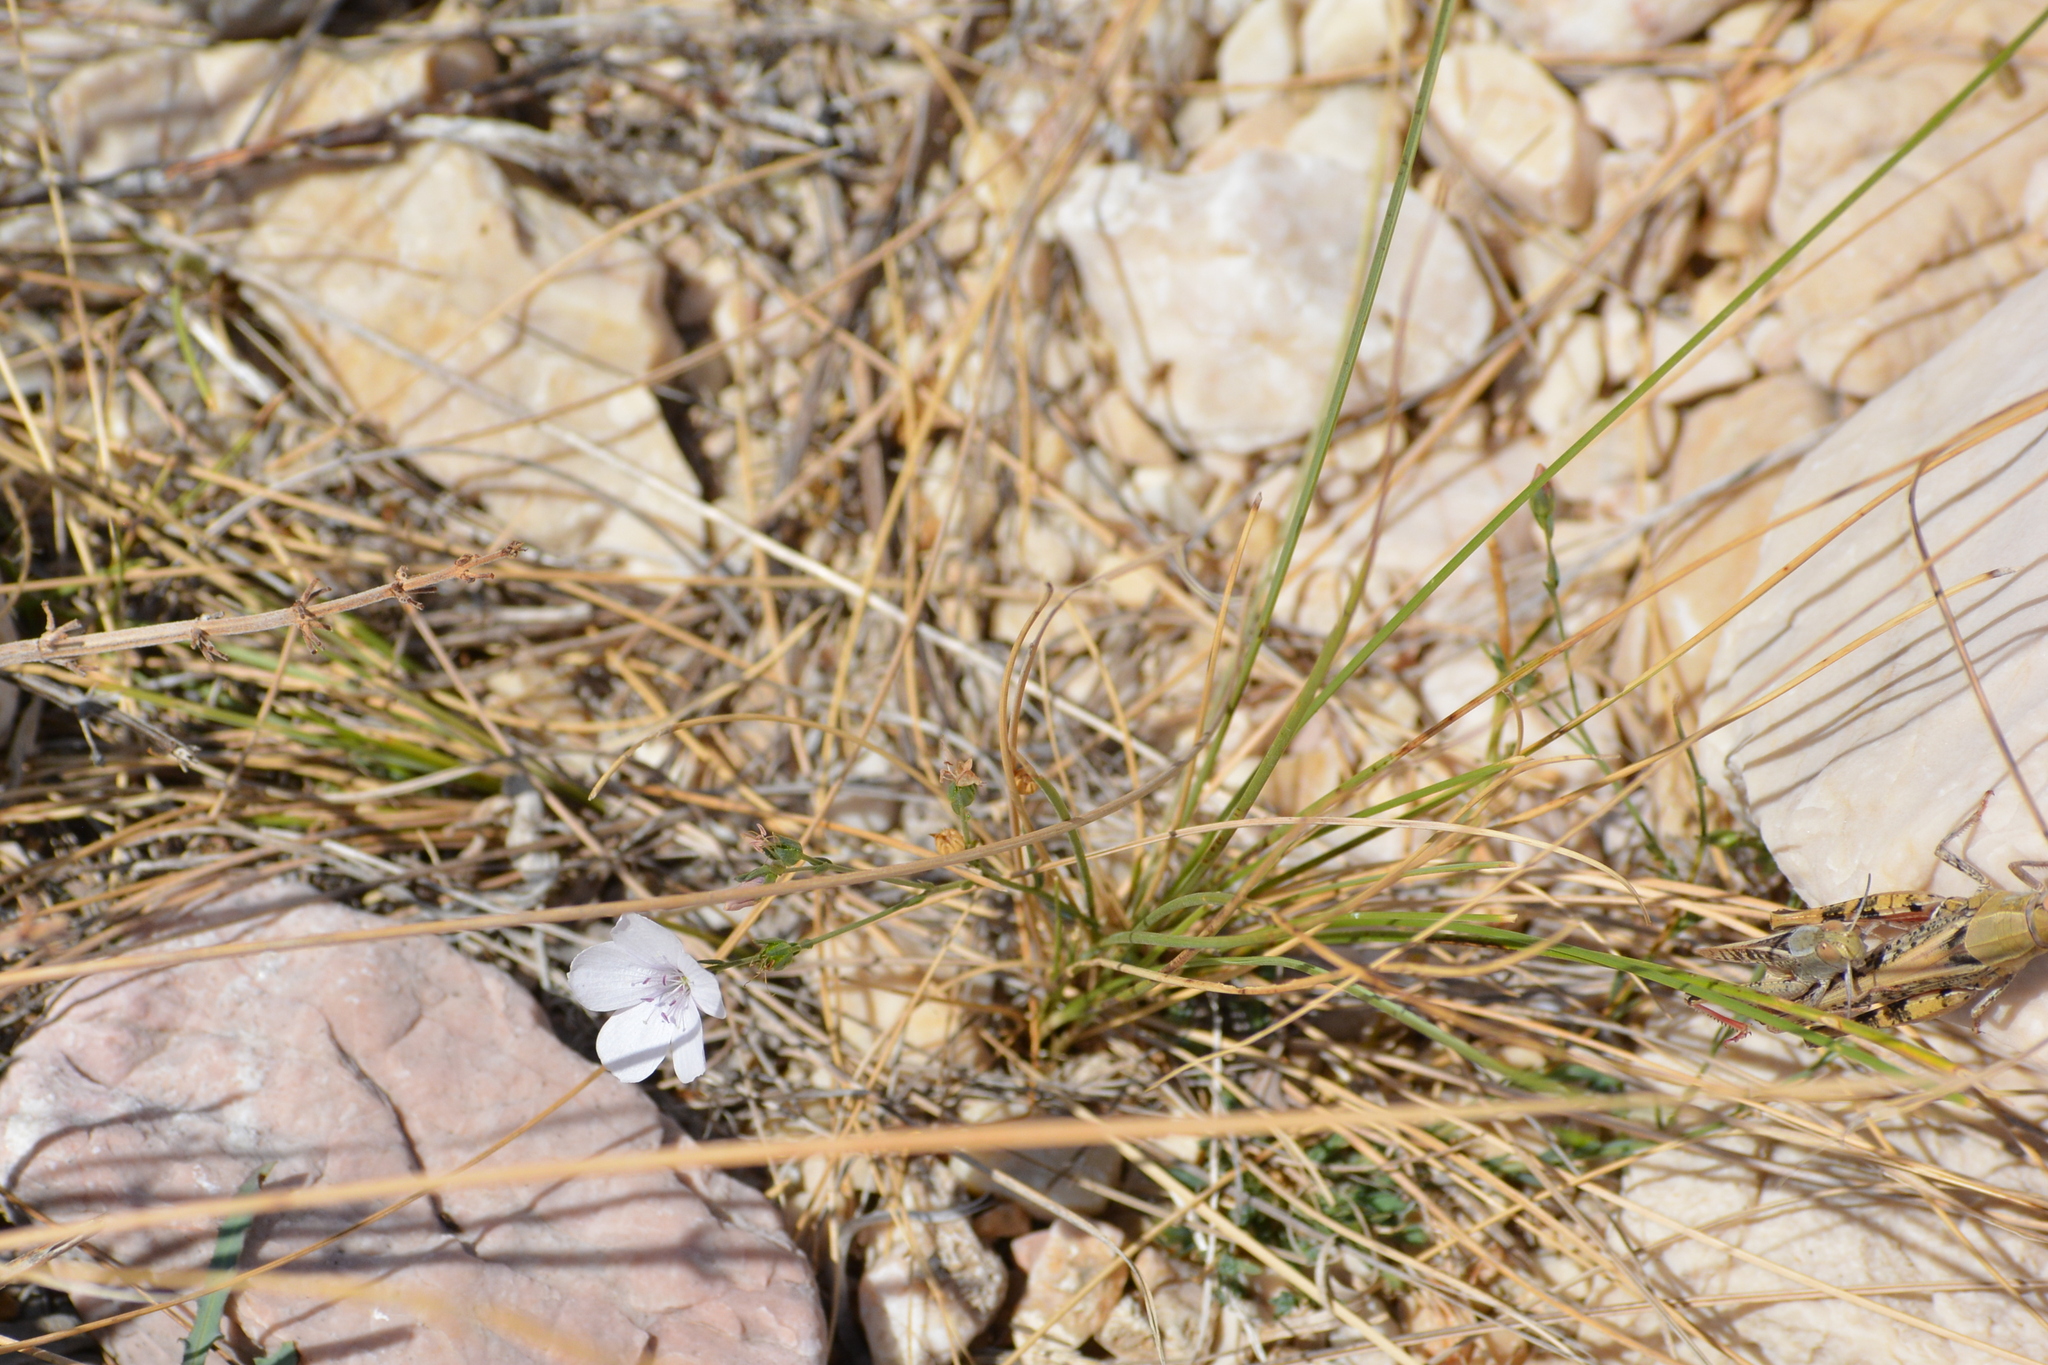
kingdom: Plantae
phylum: Tracheophyta
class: Magnoliopsida
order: Malpighiales
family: Linaceae
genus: Linum
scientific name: Linum tenuifolium
